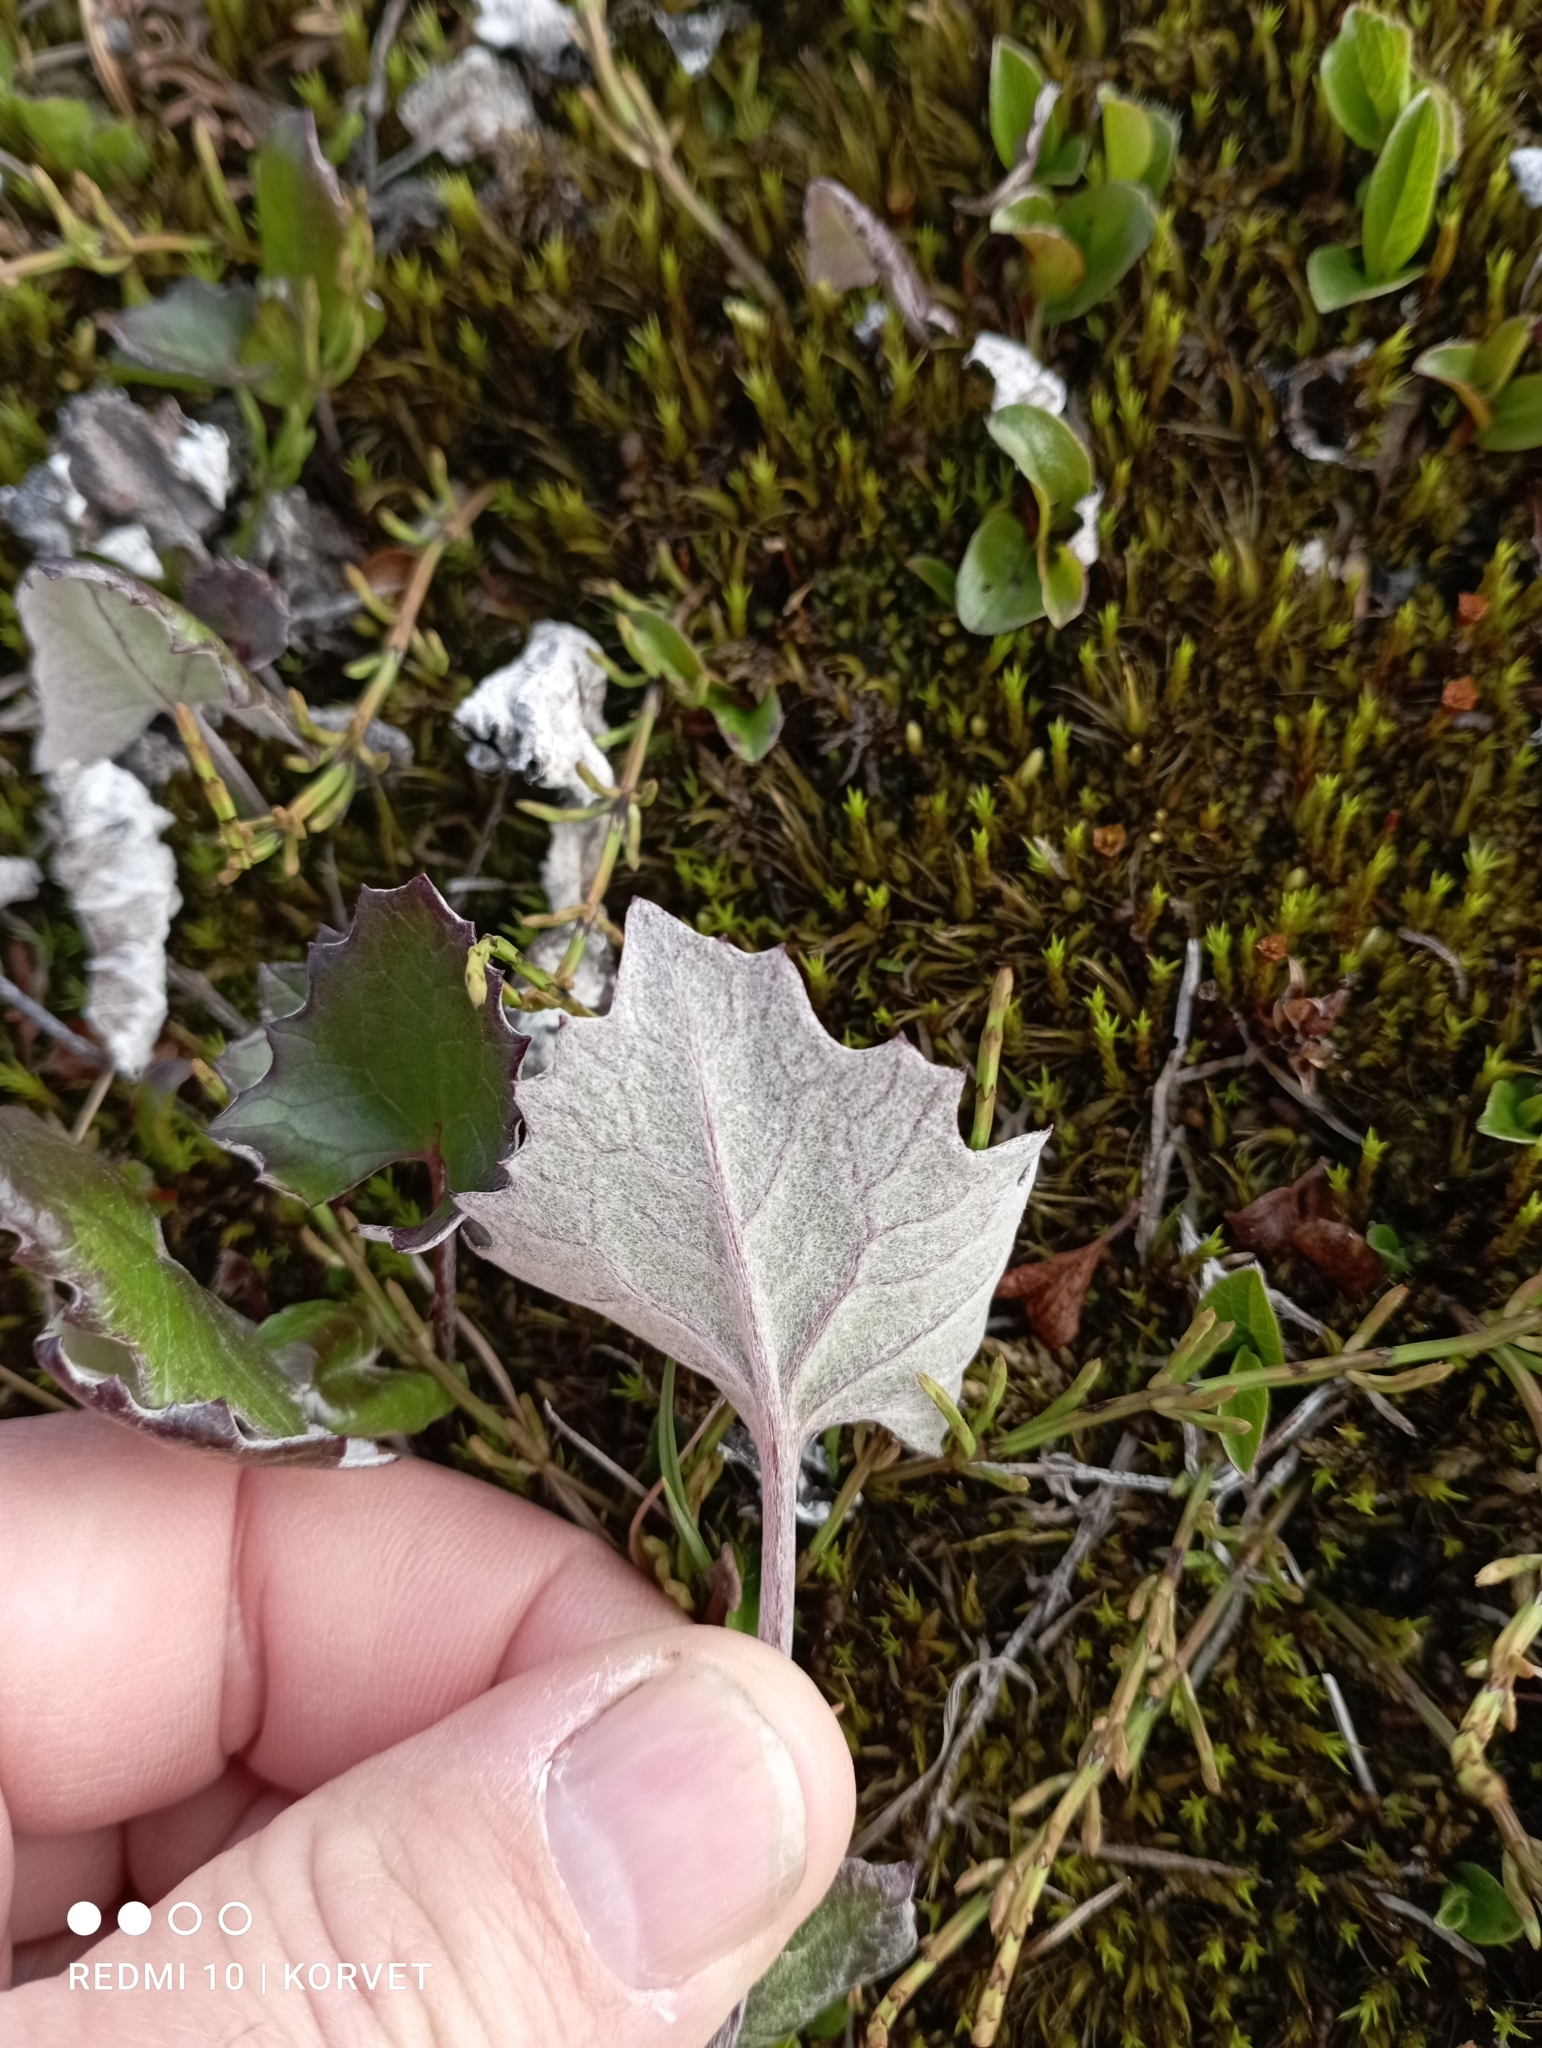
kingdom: Plantae
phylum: Tracheophyta
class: Magnoliopsida
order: Asterales
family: Asteraceae
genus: Petasites
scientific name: Petasites frigidus
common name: Arctic butterbur
